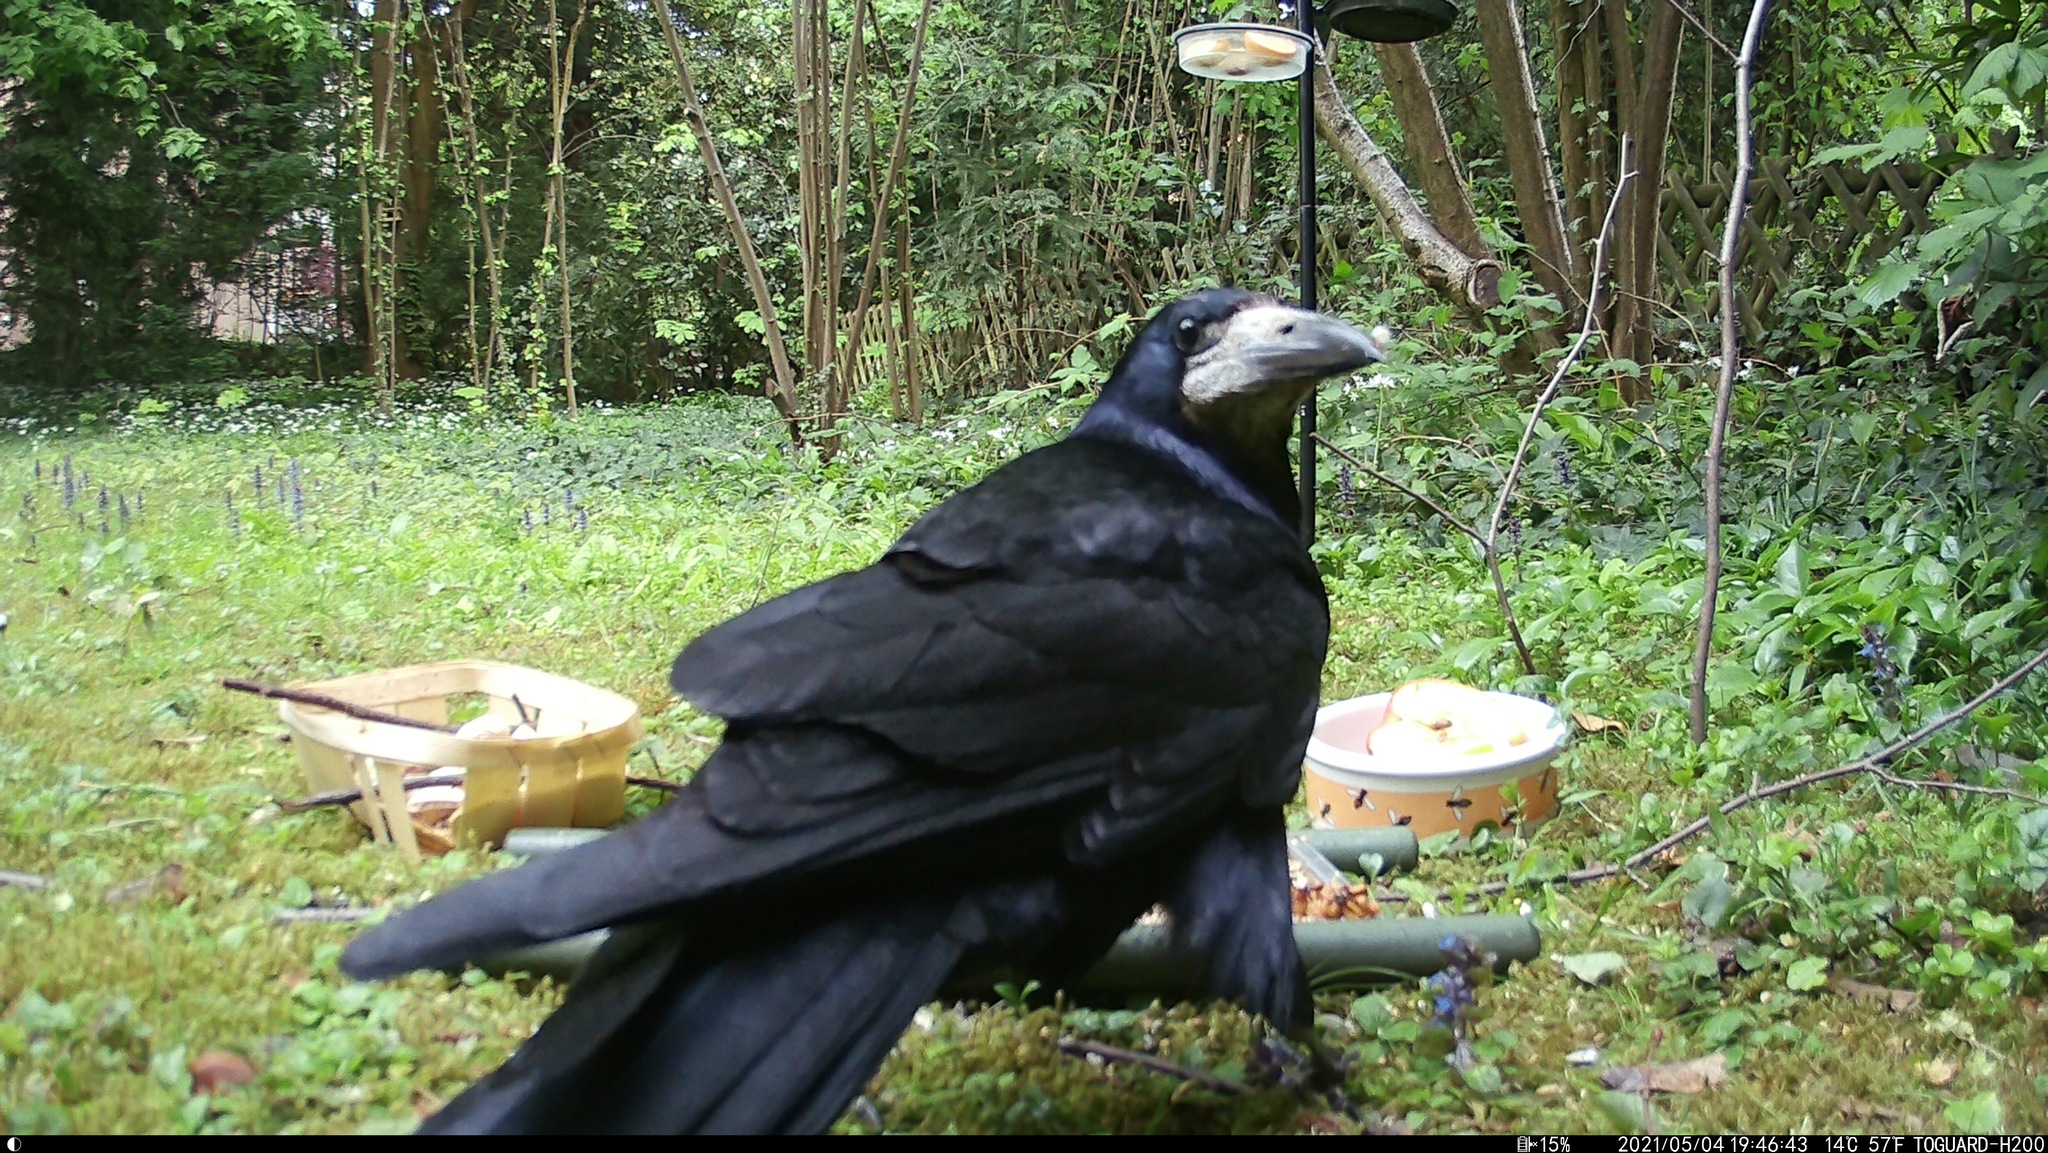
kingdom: Animalia
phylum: Chordata
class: Aves
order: Passeriformes
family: Corvidae
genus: Corvus
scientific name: Corvus frugilegus
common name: Rook
